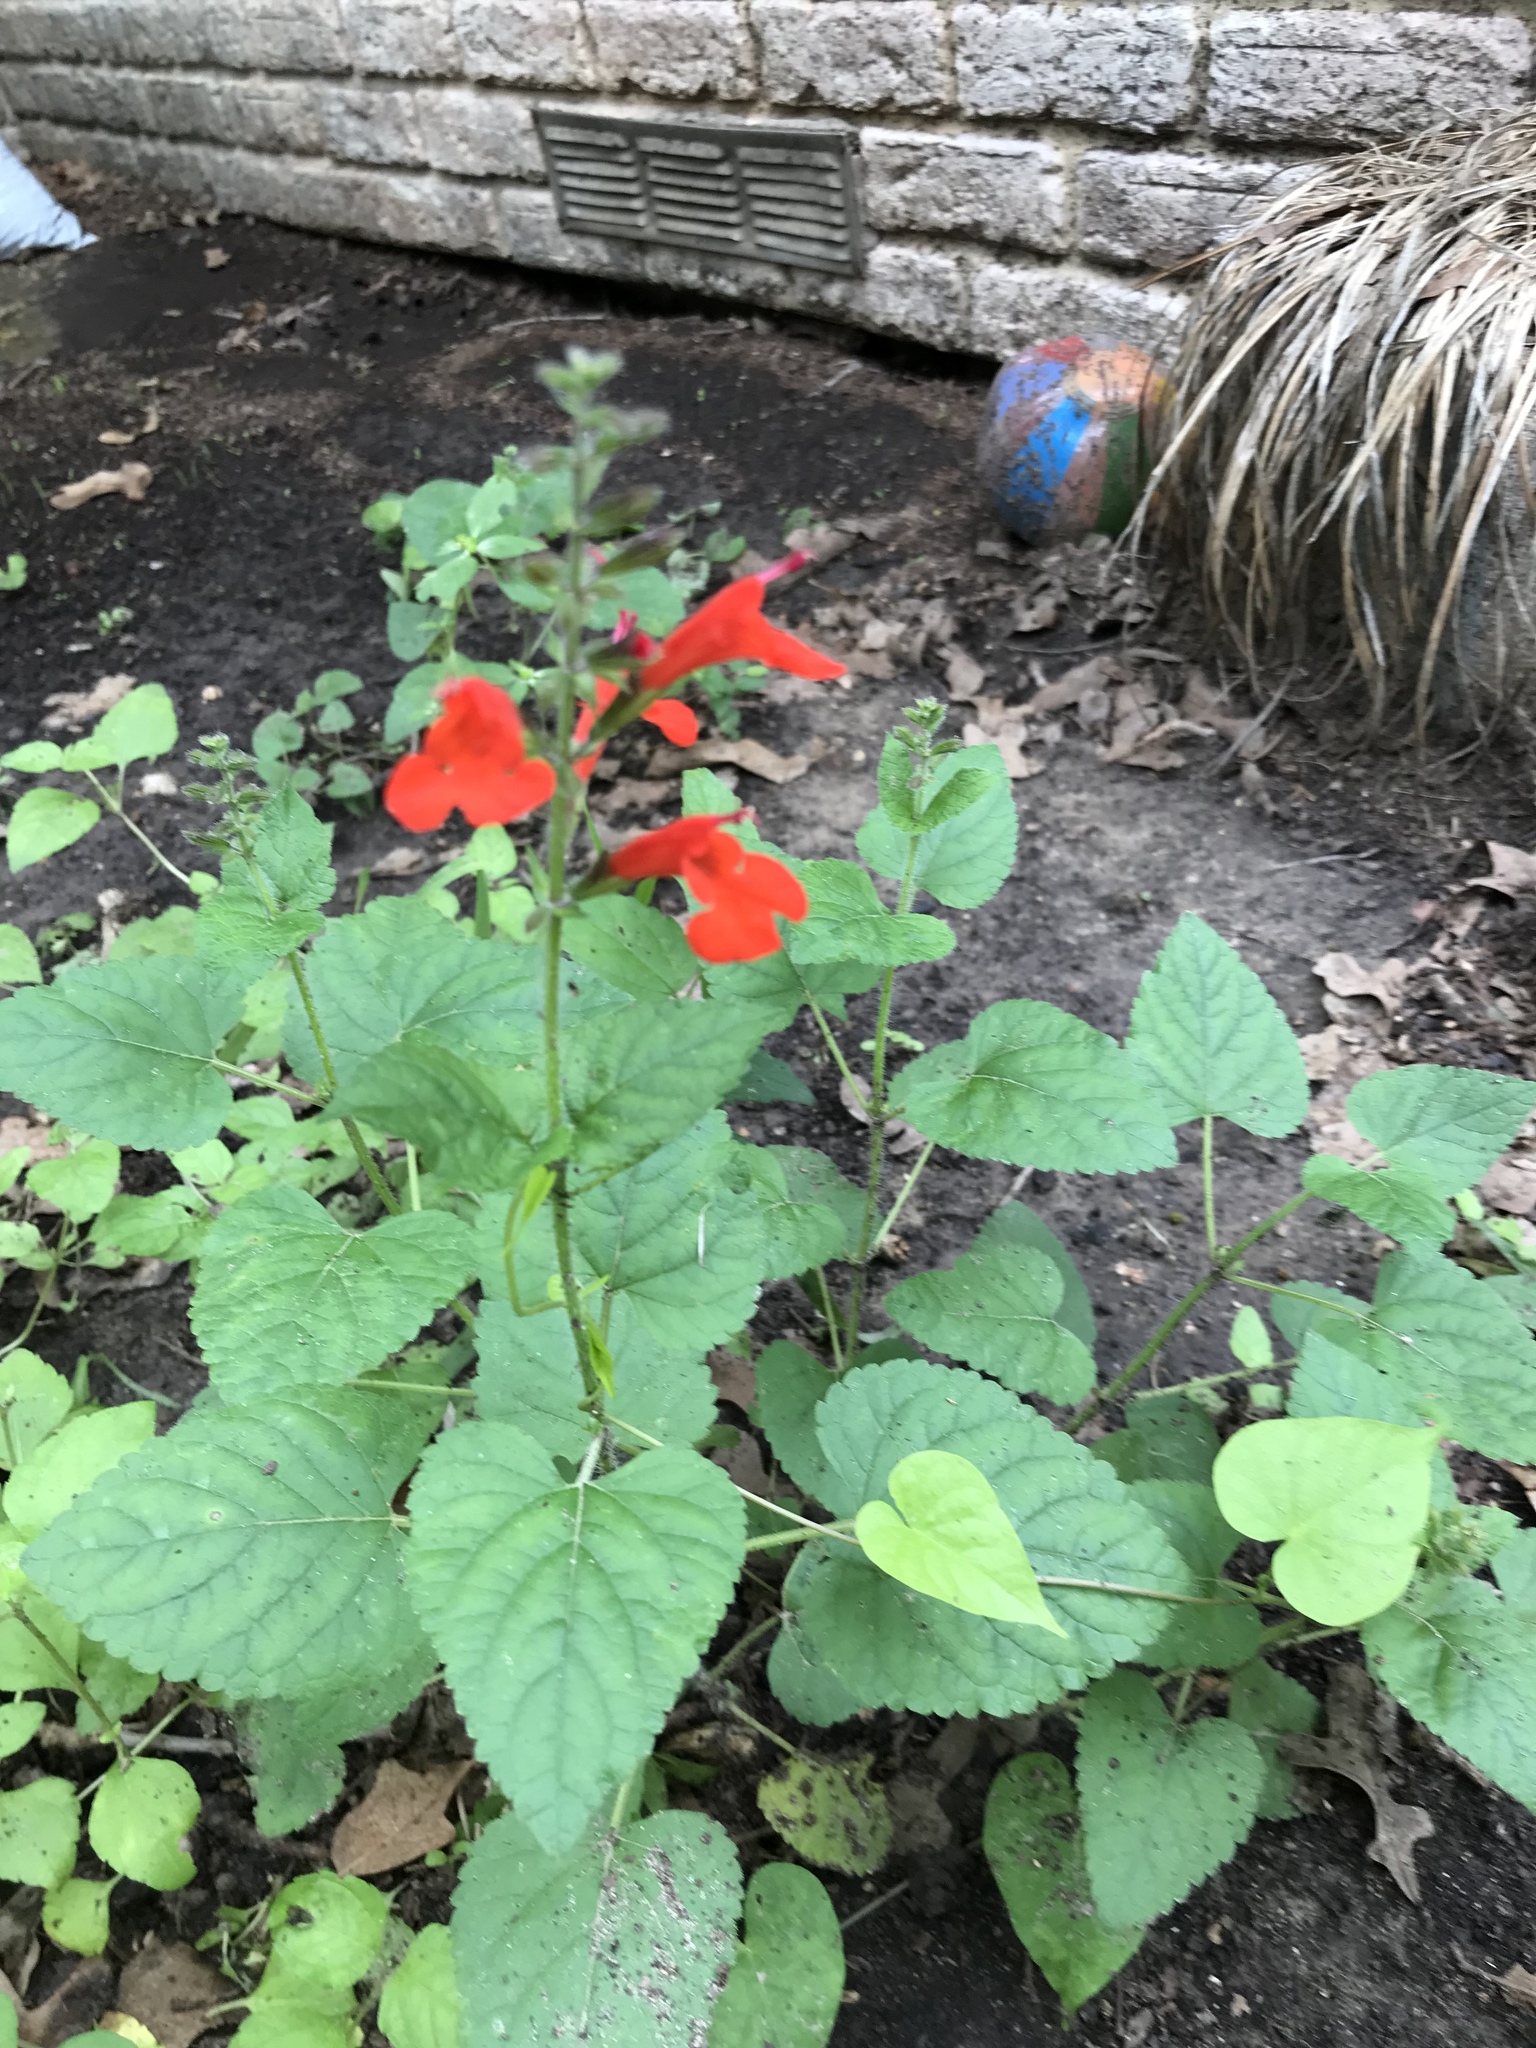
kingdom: Plantae
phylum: Tracheophyta
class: Magnoliopsida
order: Lamiales
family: Lamiaceae
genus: Salvia
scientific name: Salvia coccinea
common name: Blood sage
